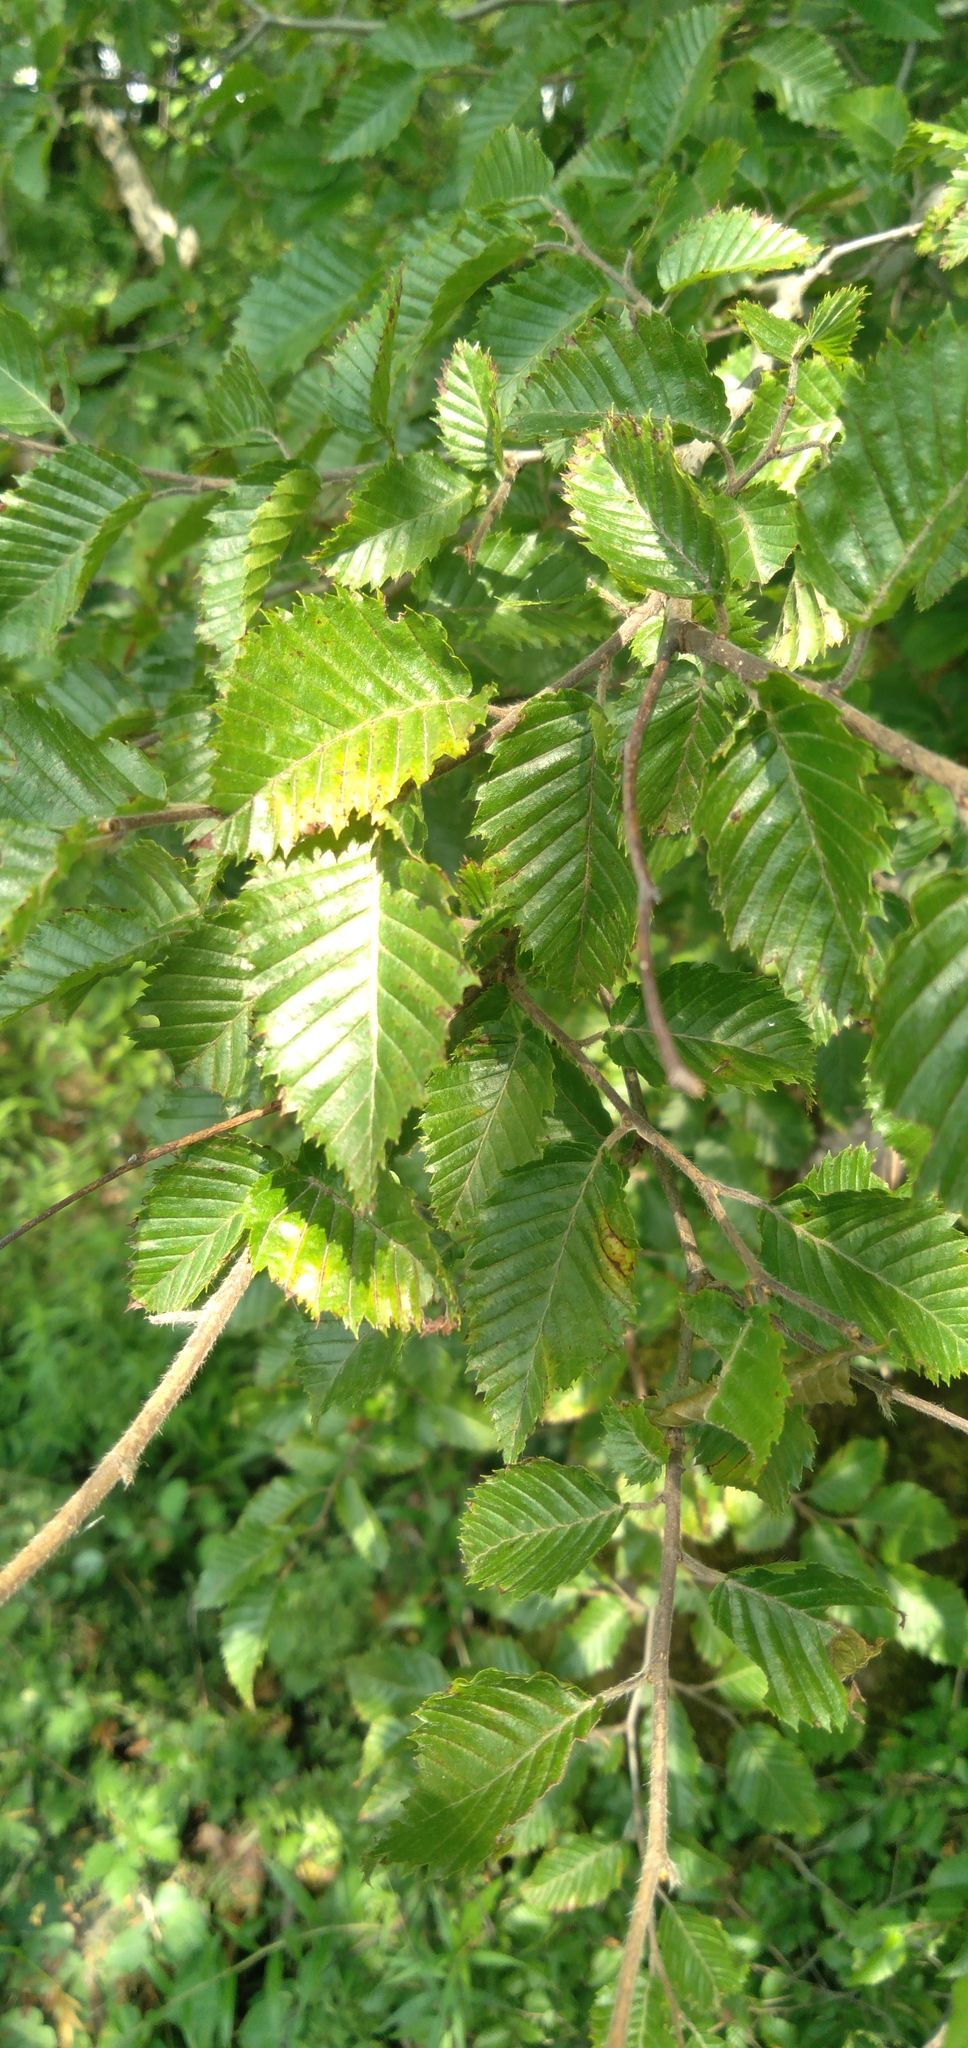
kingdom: Plantae
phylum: Tracheophyta
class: Magnoliopsida
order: Fagales
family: Betulaceae
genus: Carpinus
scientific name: Carpinus orientalis
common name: Eastern hornbeam
